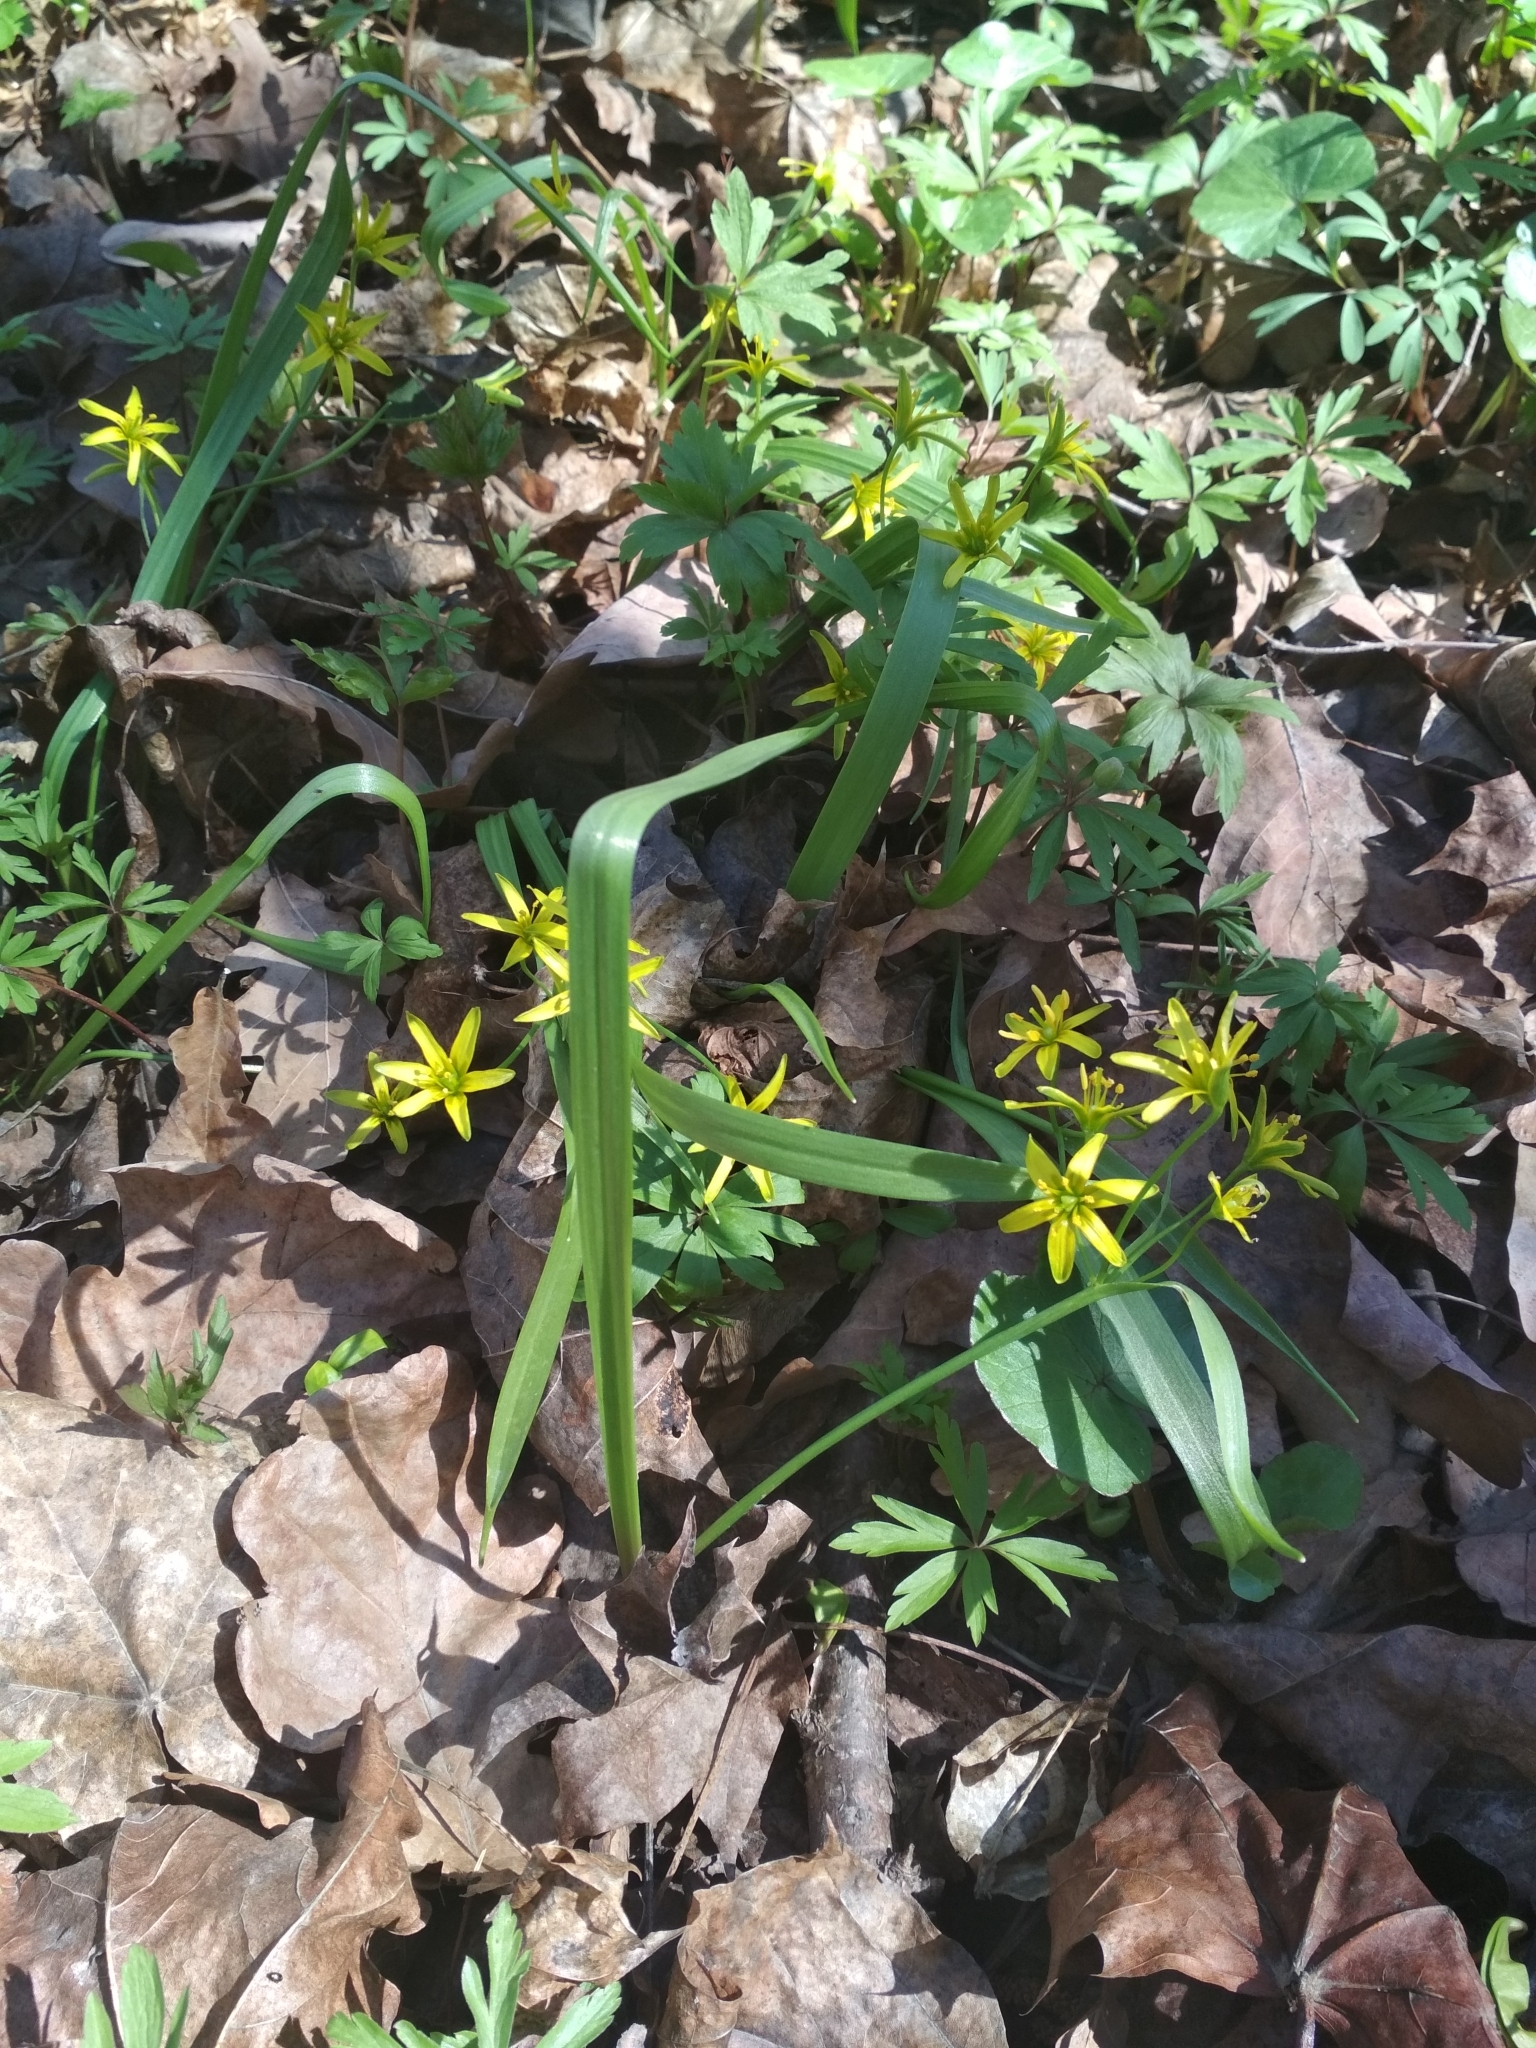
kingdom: Plantae
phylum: Tracheophyta
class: Liliopsida
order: Liliales
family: Liliaceae
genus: Gagea
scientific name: Gagea lutea
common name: Yellow star-of-bethlehem
